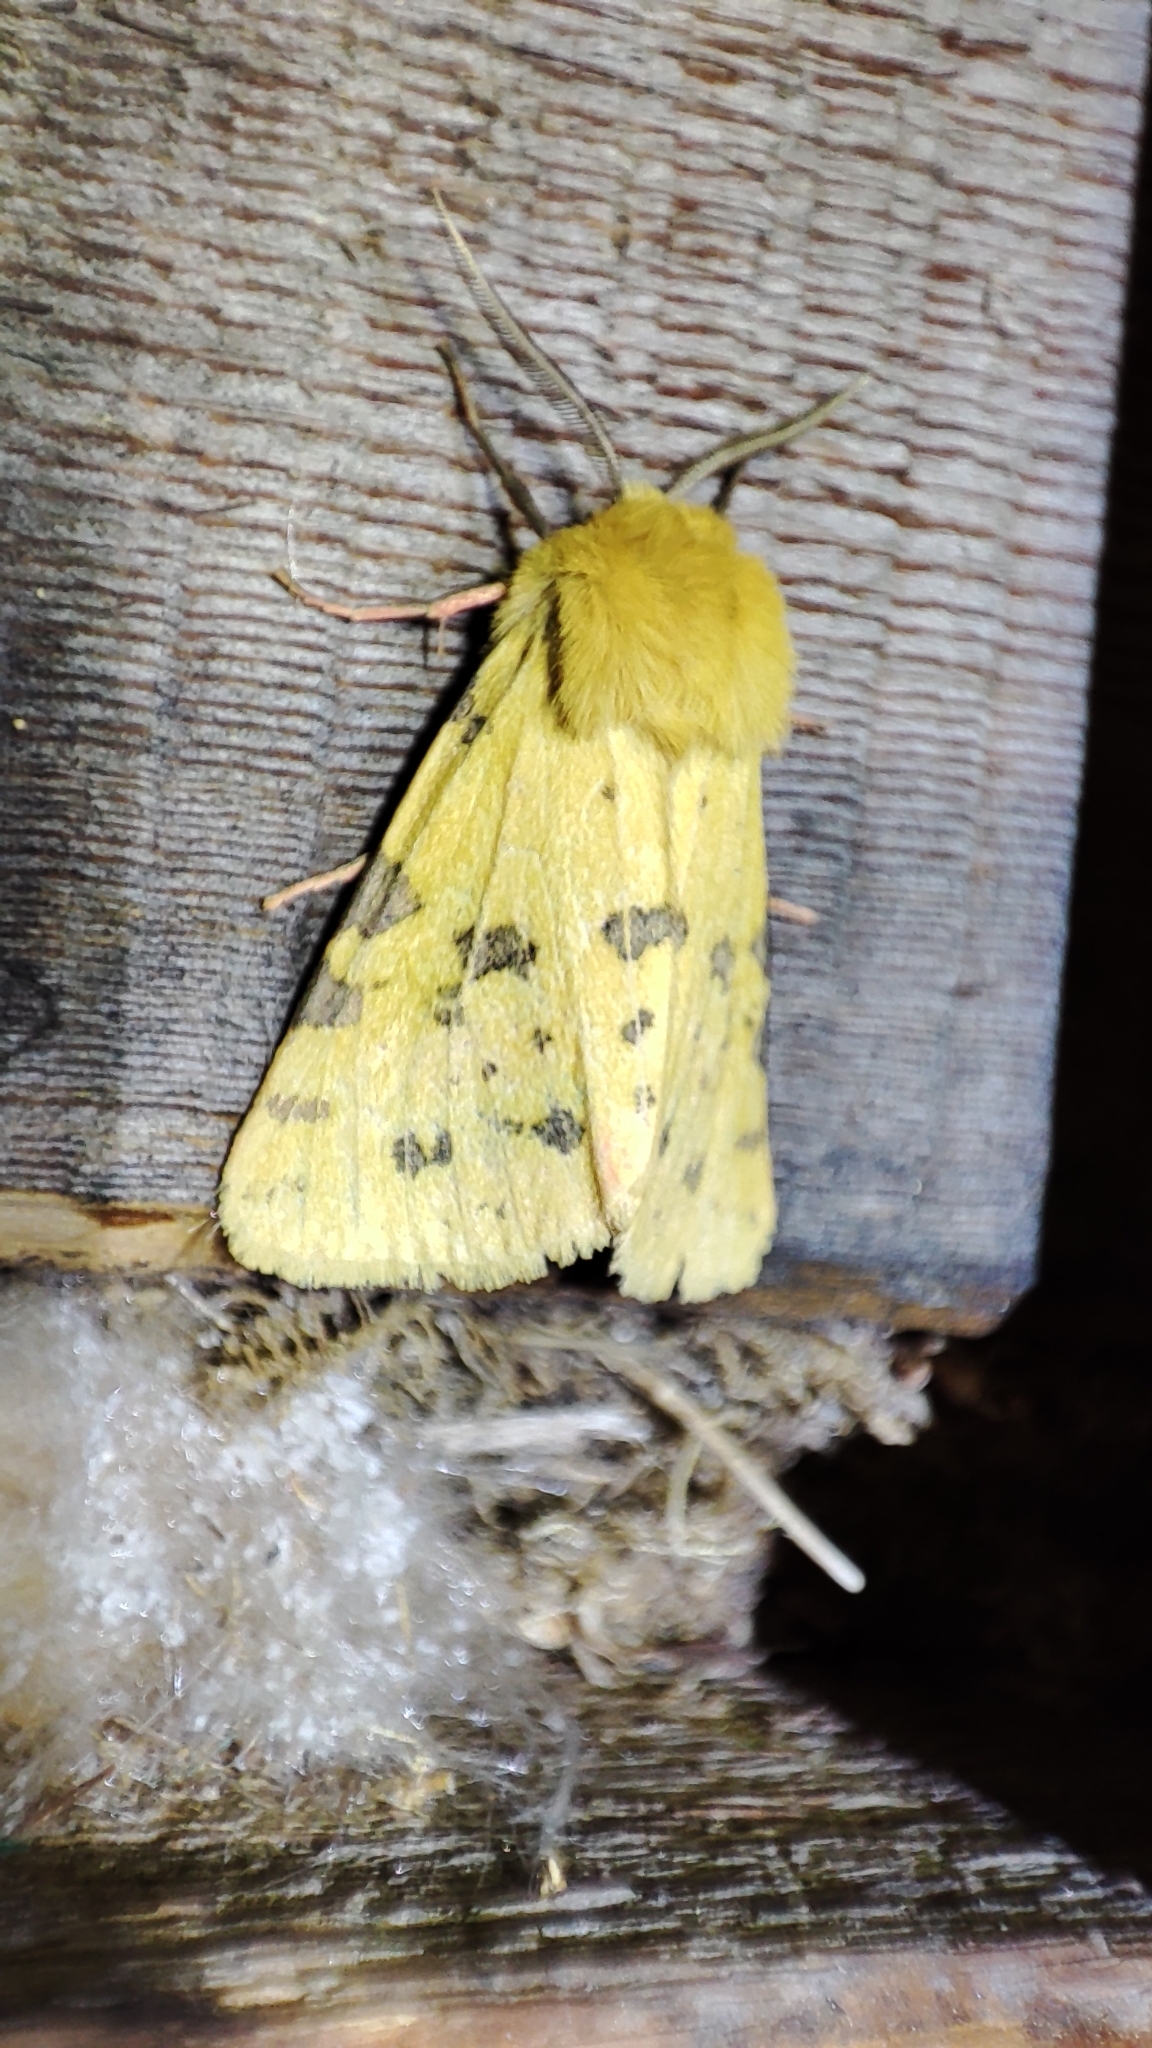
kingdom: Animalia
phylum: Arthropoda
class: Insecta
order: Lepidoptera
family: Erebidae
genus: Rhyparia
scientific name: Rhyparia purpurata
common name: Purple tiger
